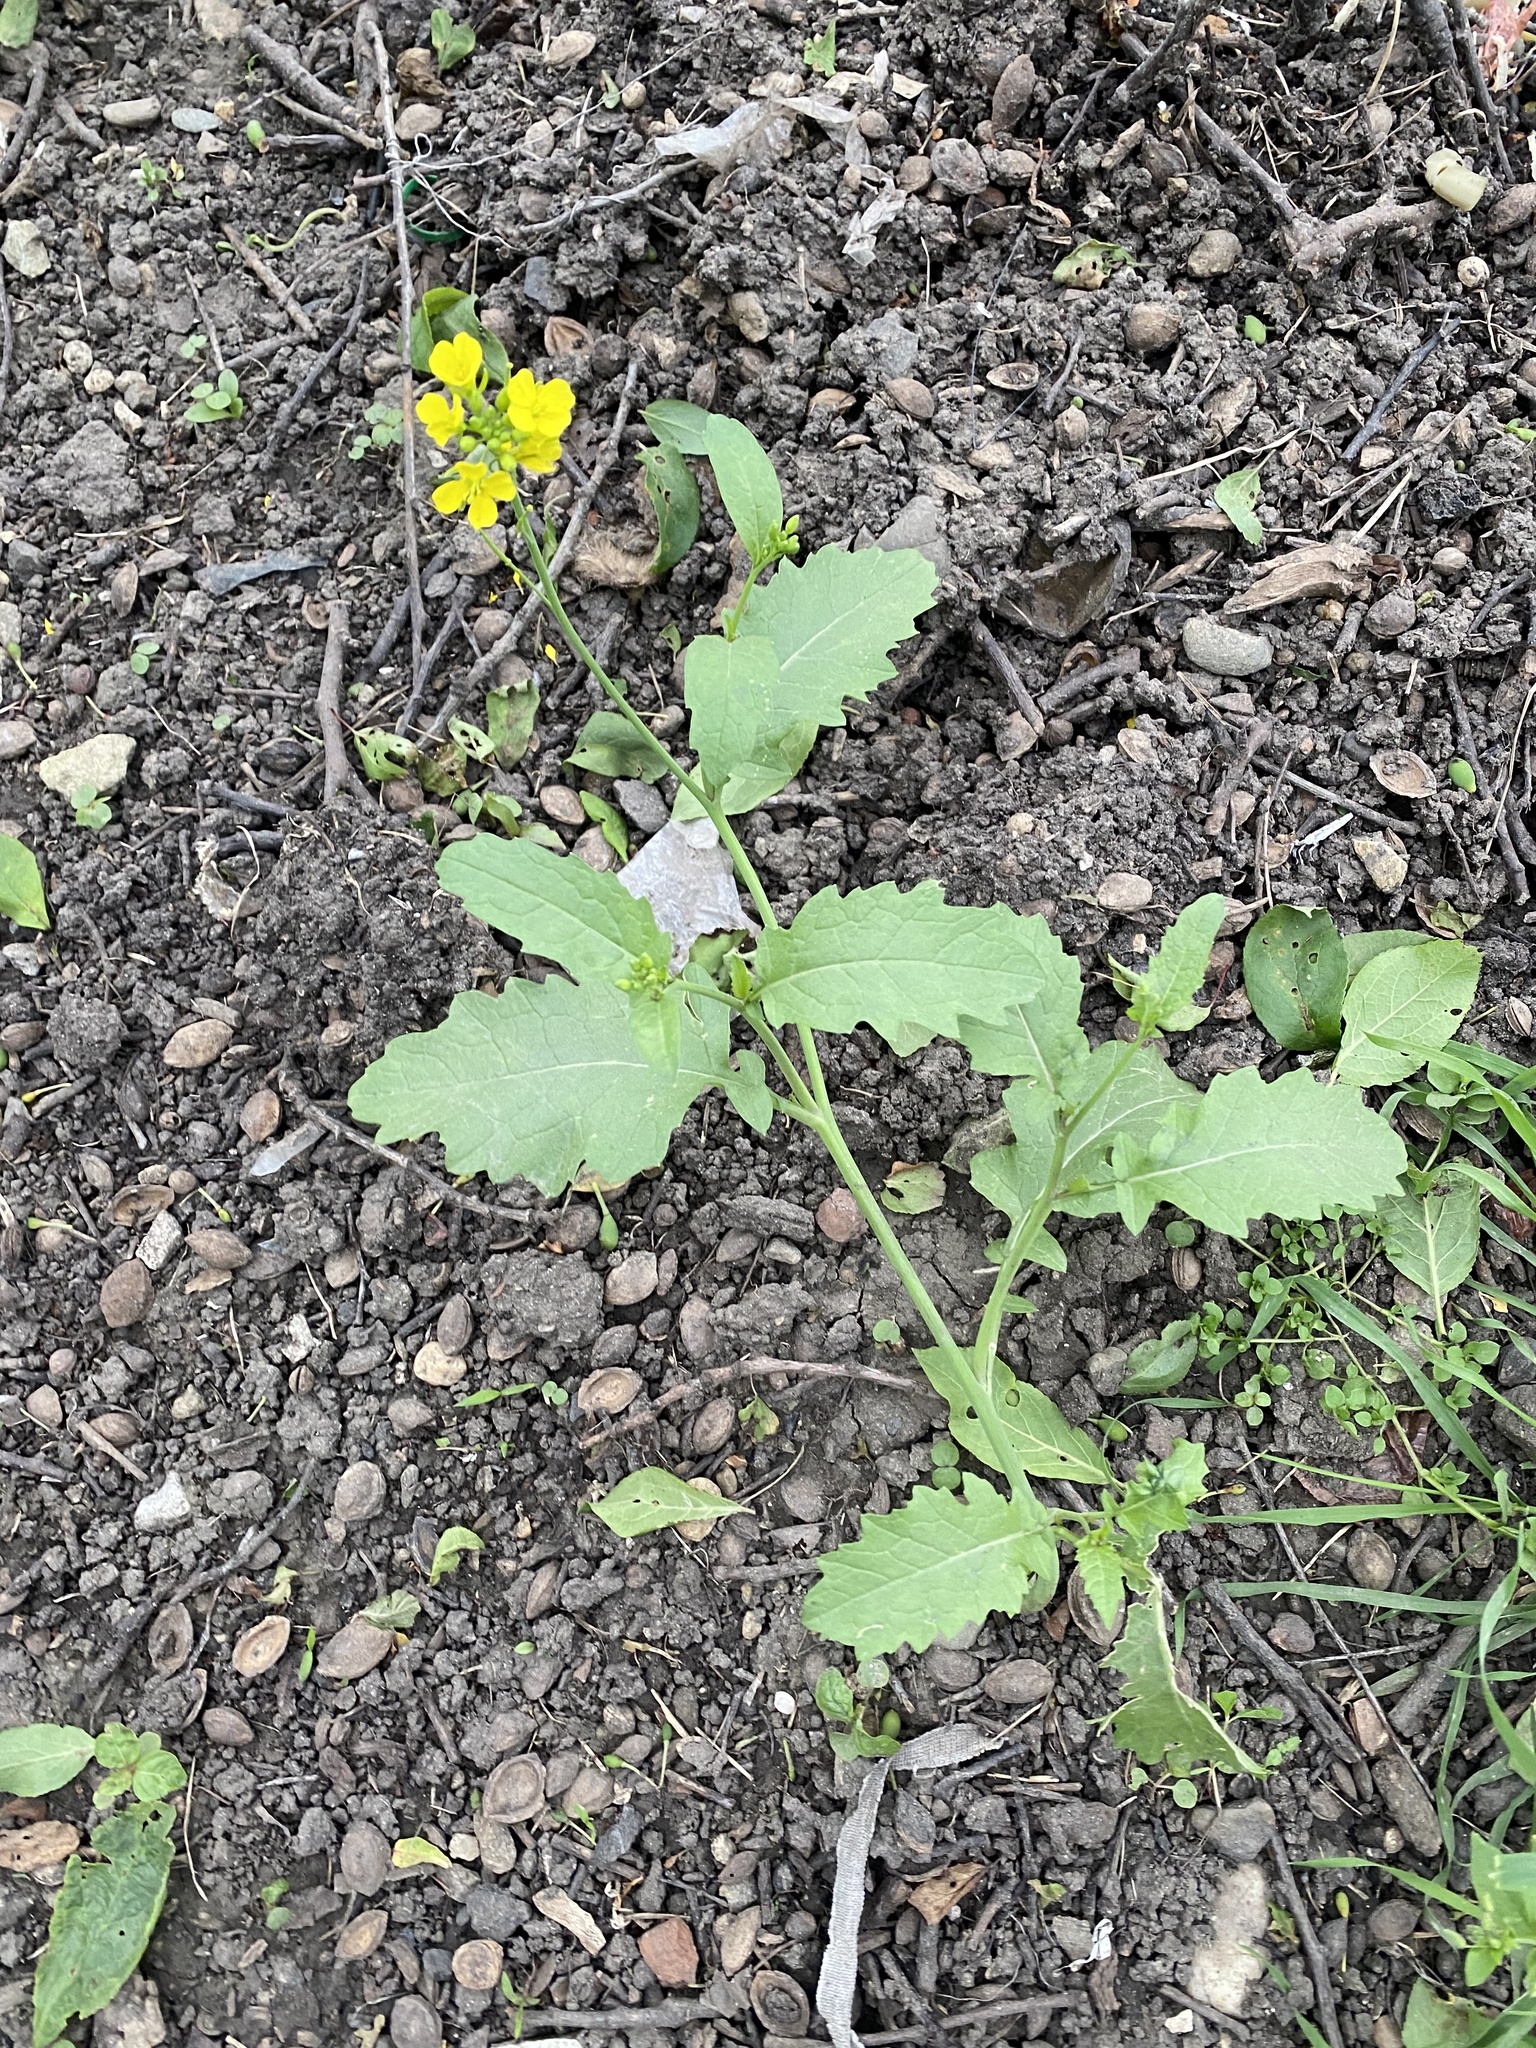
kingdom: Plantae
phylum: Tracheophyta
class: Magnoliopsida
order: Brassicales
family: Brassicaceae
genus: Sinapis
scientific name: Sinapis arvensis
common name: Charlock
